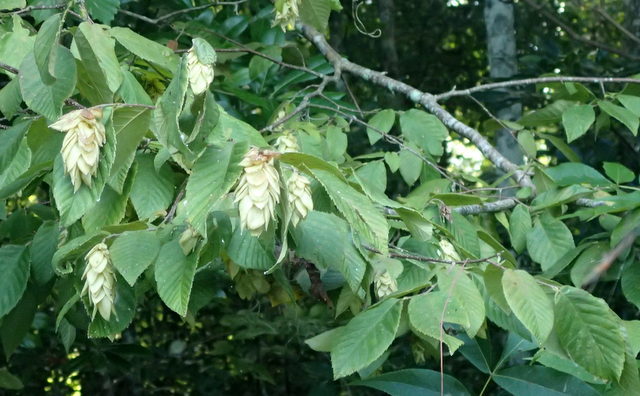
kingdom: Plantae
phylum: Tracheophyta
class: Magnoliopsida
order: Fagales
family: Betulaceae
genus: Ostrya
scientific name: Ostrya virginiana
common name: Ironwood
